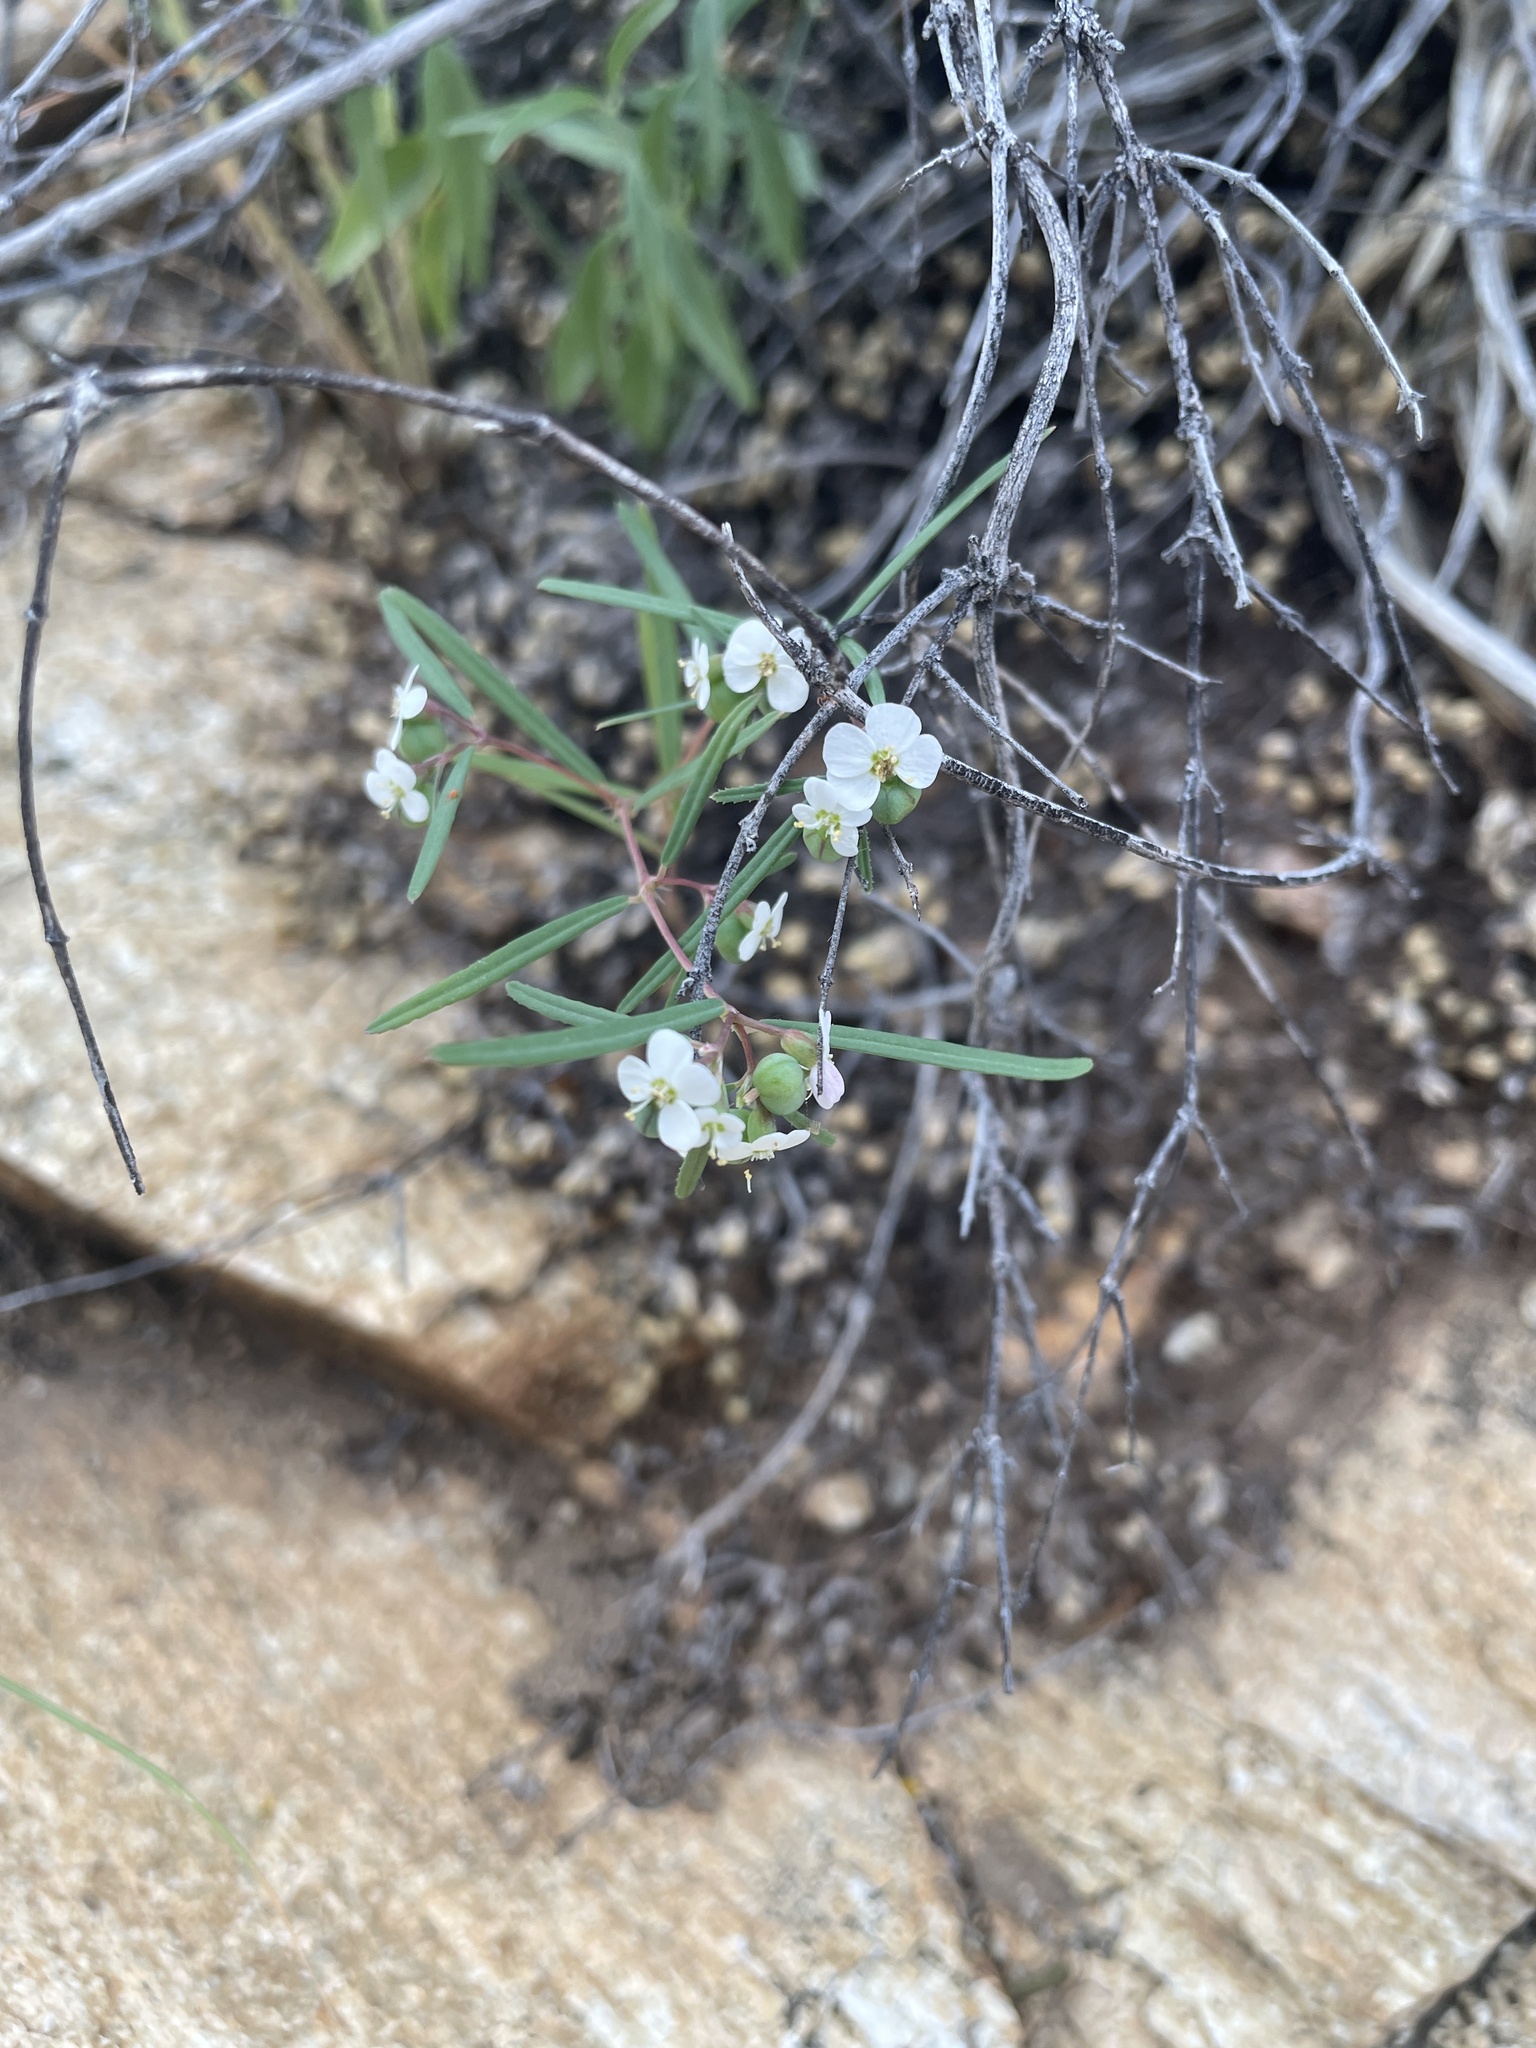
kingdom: Plantae
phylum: Tracheophyta
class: Magnoliopsida
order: Malpighiales
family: Euphorbiaceae
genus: Euphorbia
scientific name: Euphorbia florida
